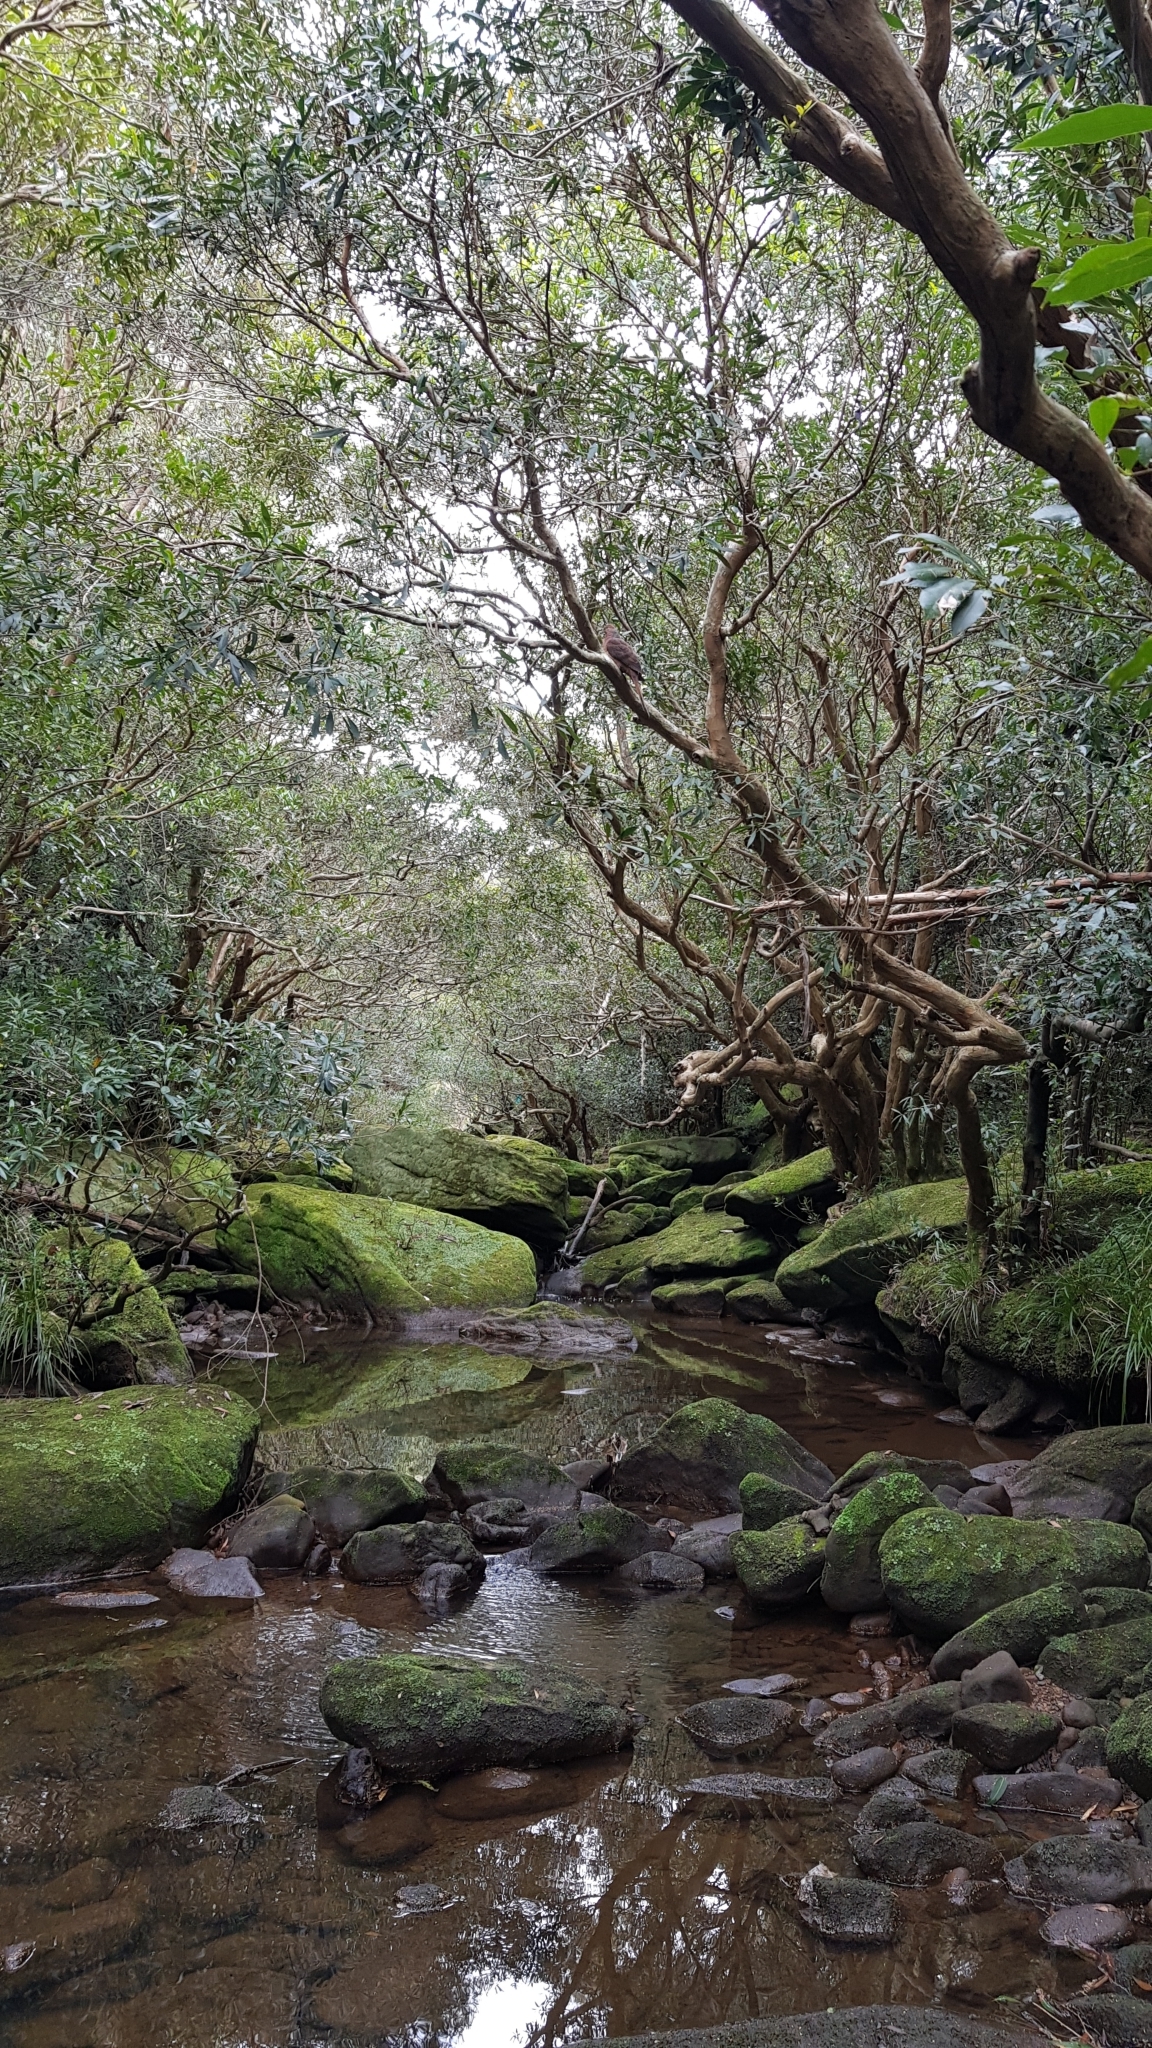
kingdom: Animalia
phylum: Chordata
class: Aves
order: Columbiformes
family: Columbidae
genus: Macropygia
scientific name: Macropygia phasianella
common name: Brown cuckoo-dove
